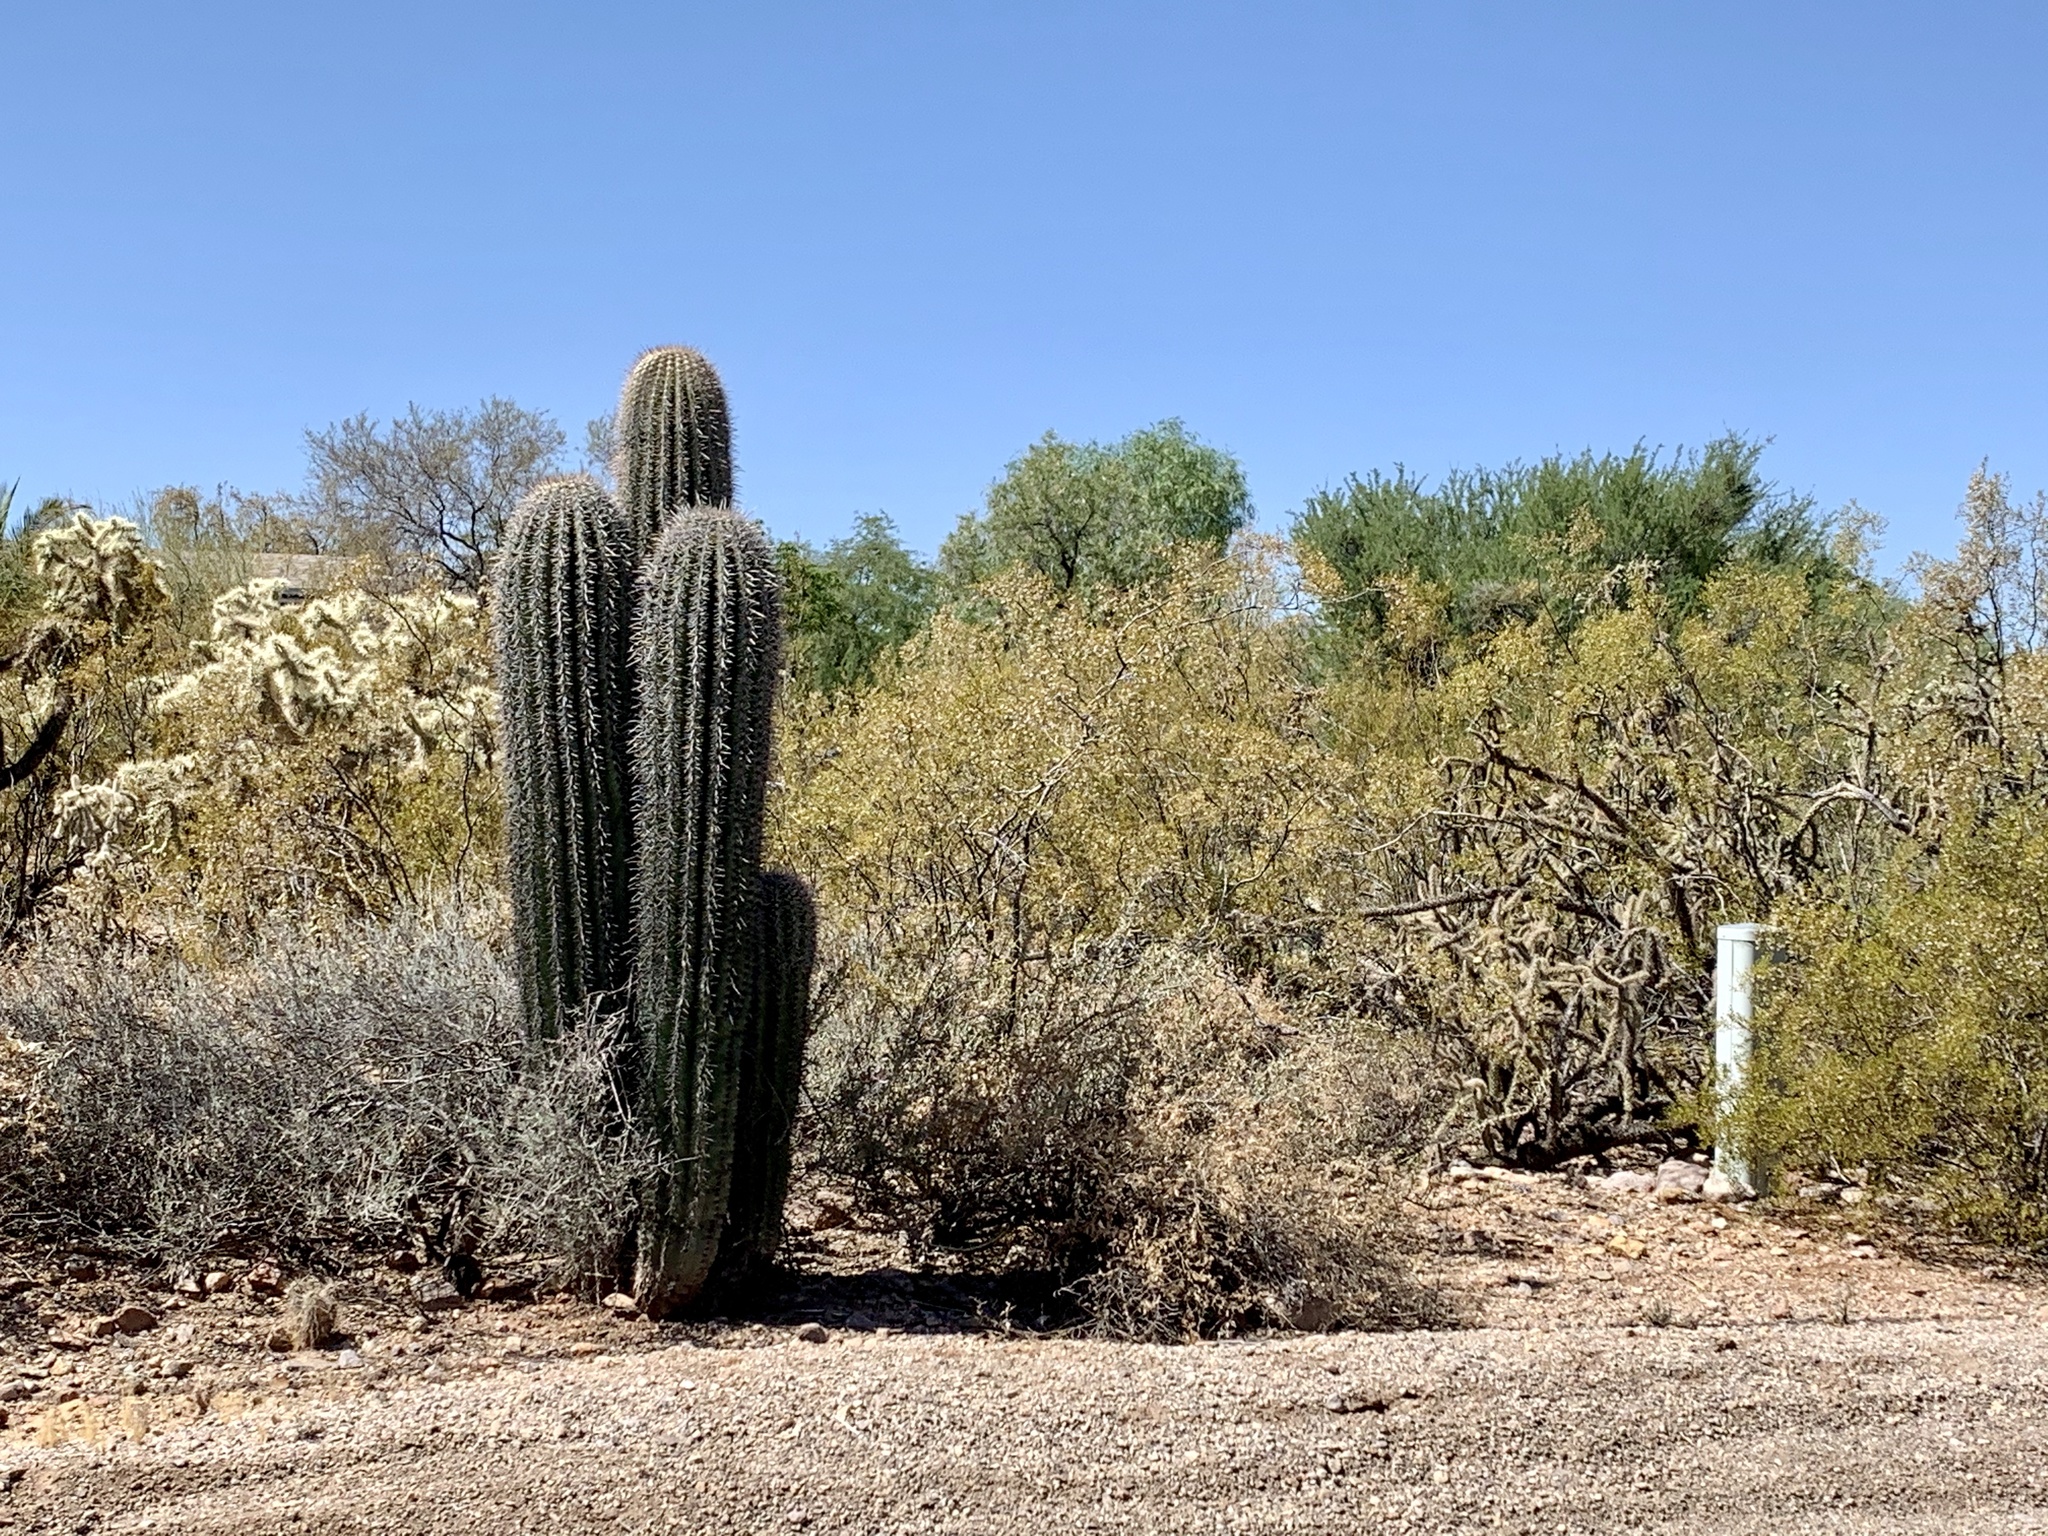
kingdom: Plantae
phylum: Tracheophyta
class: Magnoliopsida
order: Caryophyllales
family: Cactaceae
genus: Carnegiea
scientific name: Carnegiea gigantea
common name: Saguaro
